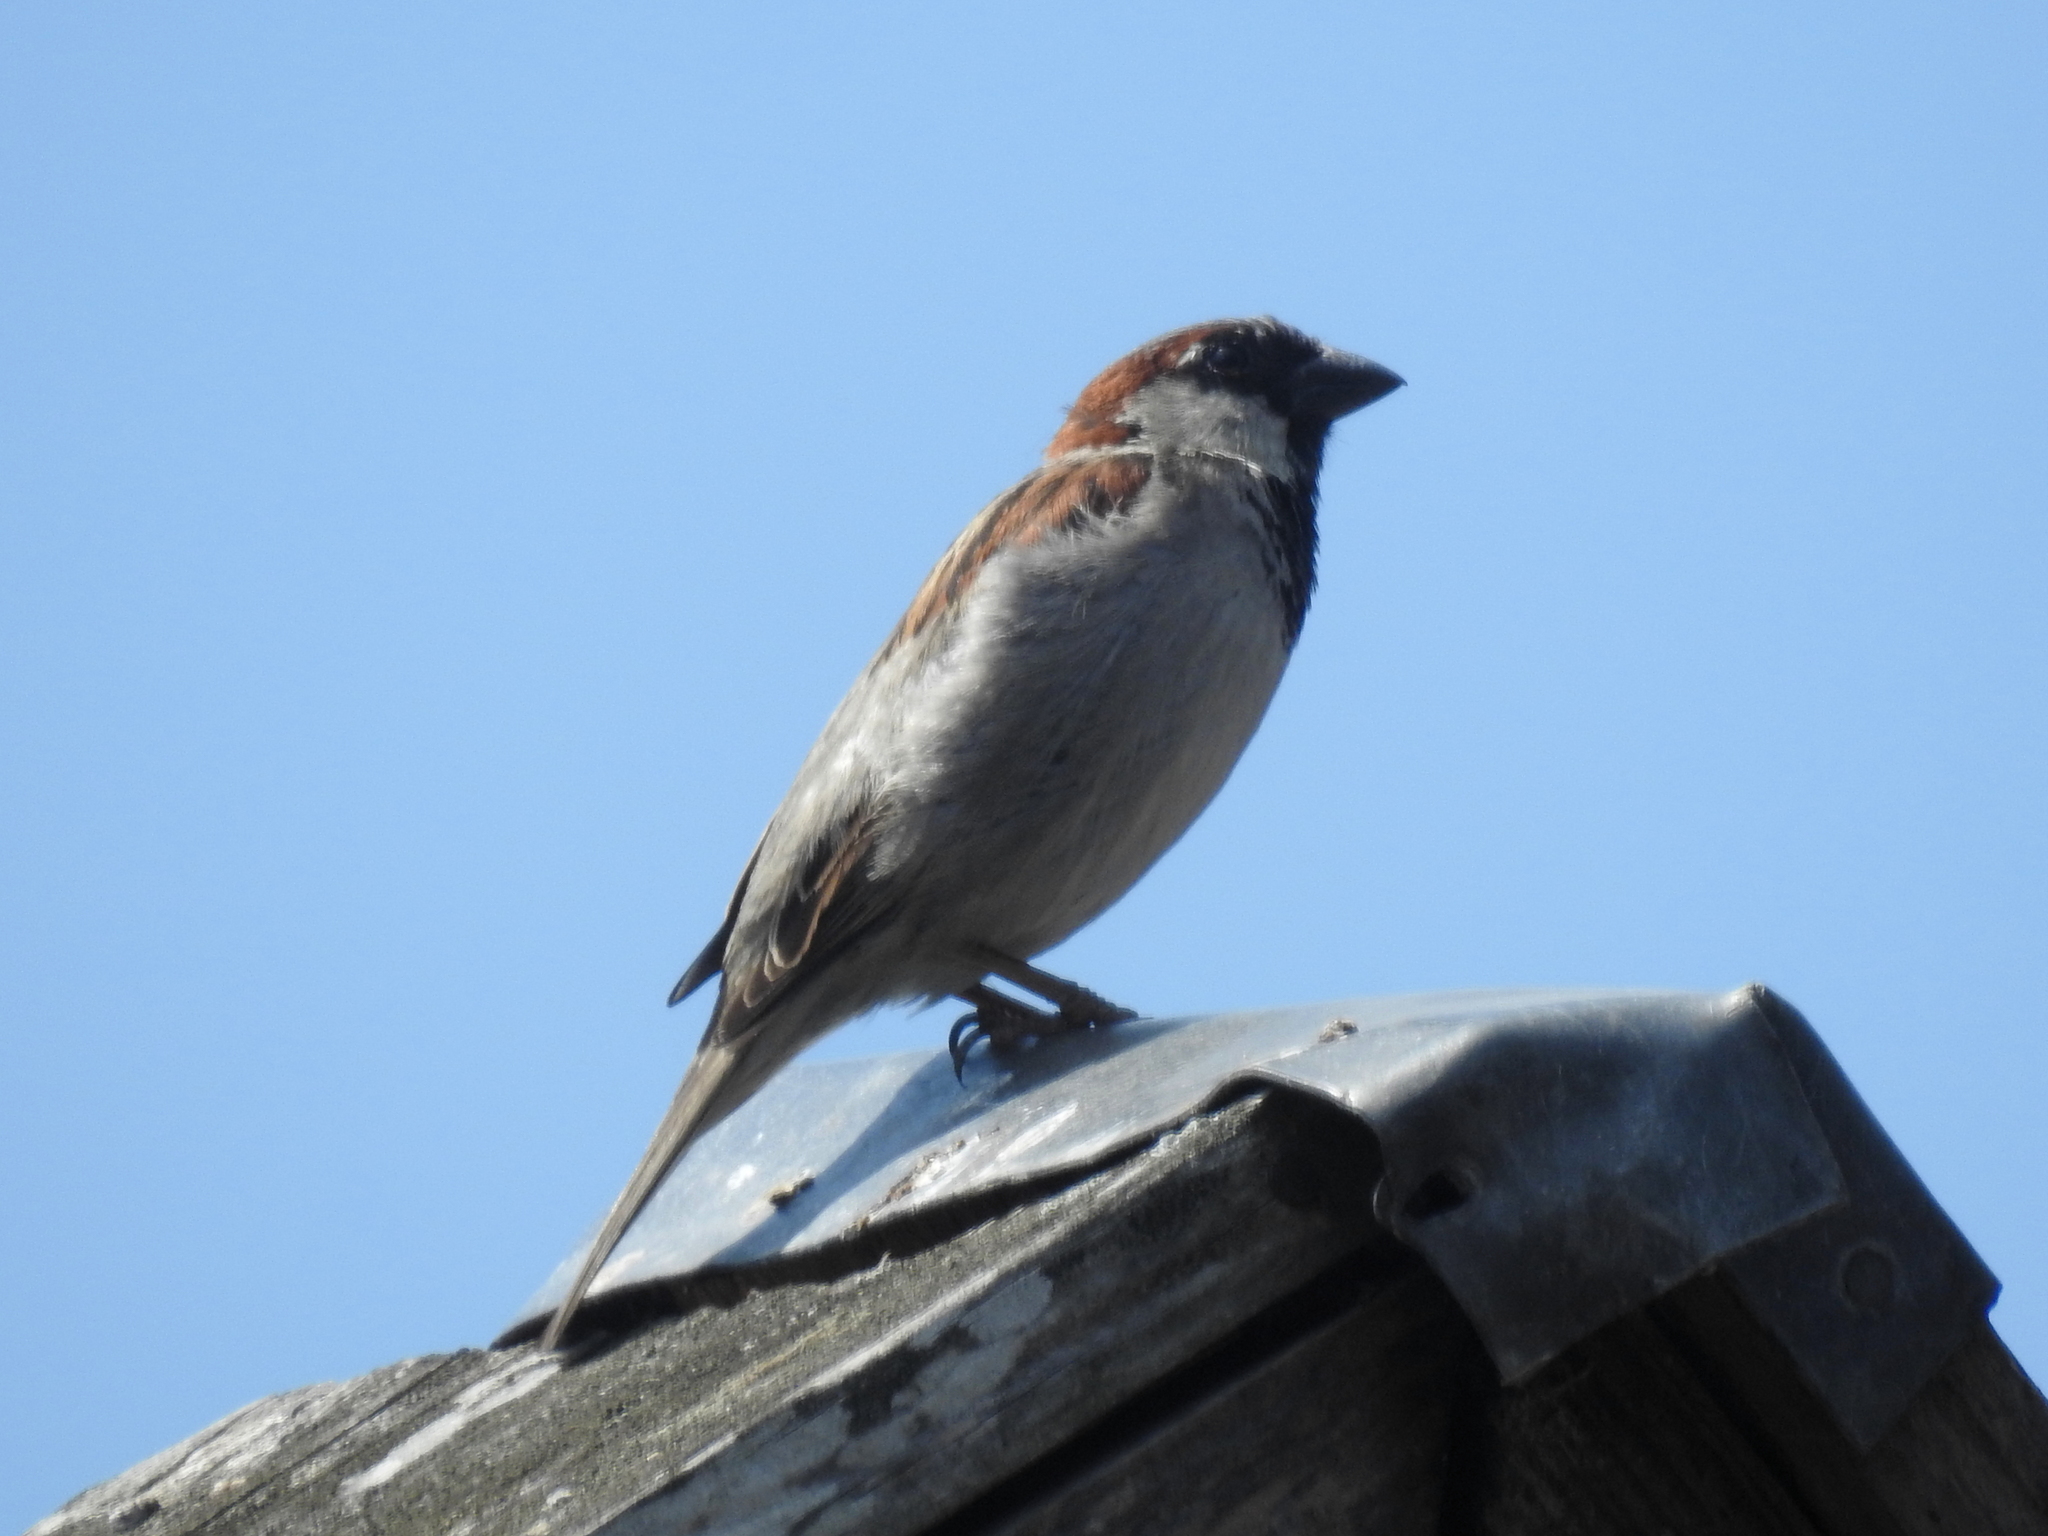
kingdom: Animalia
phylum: Chordata
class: Aves
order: Passeriformes
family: Passeridae
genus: Passer
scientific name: Passer domesticus
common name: House sparrow
